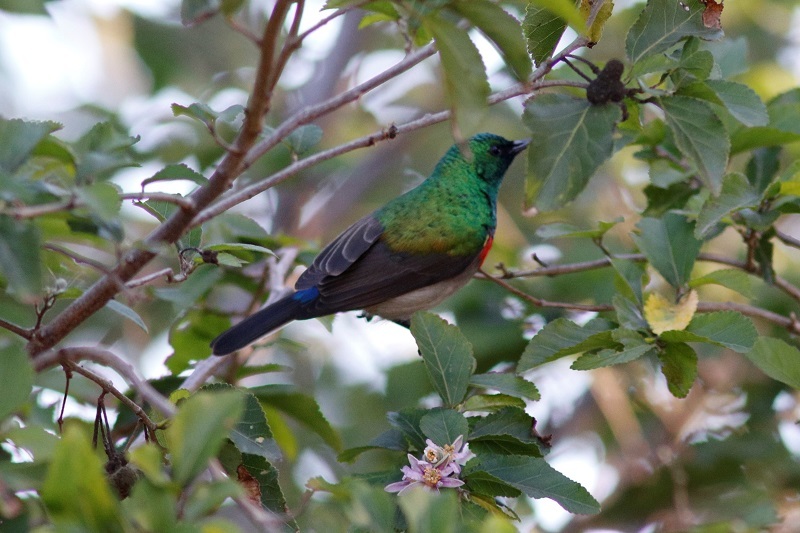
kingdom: Animalia
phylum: Chordata
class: Aves
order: Passeriformes
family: Nectariniidae
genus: Cinnyris
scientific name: Cinnyris chalybeus
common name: Southern double-collared sunbird
